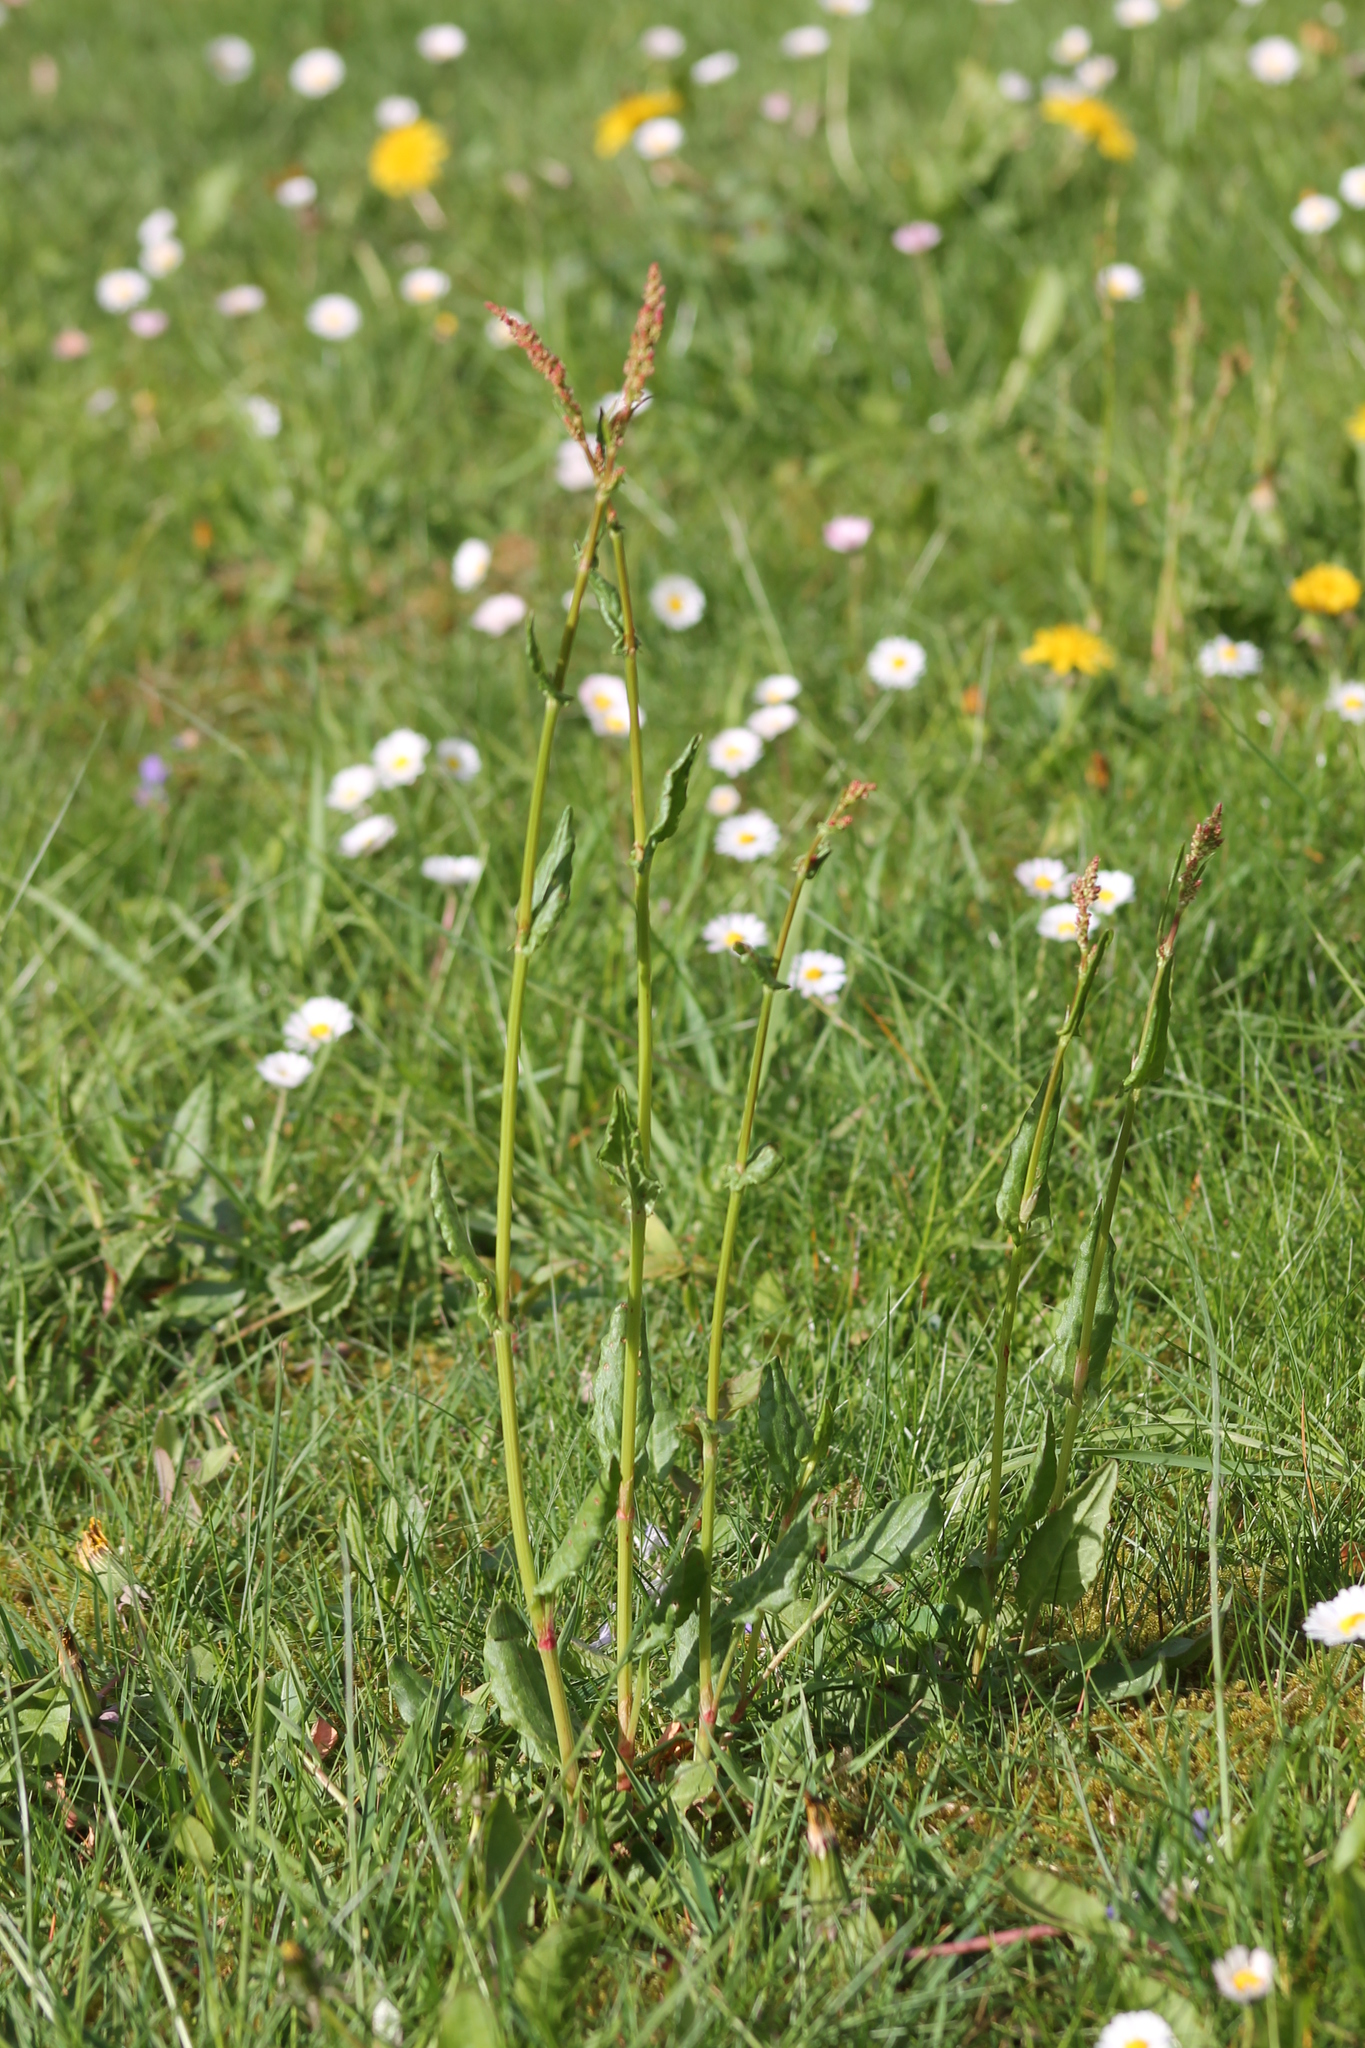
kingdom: Plantae
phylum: Tracheophyta
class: Magnoliopsida
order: Caryophyllales
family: Polygonaceae
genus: Rumex
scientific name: Rumex acetosa
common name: Garden sorrel
